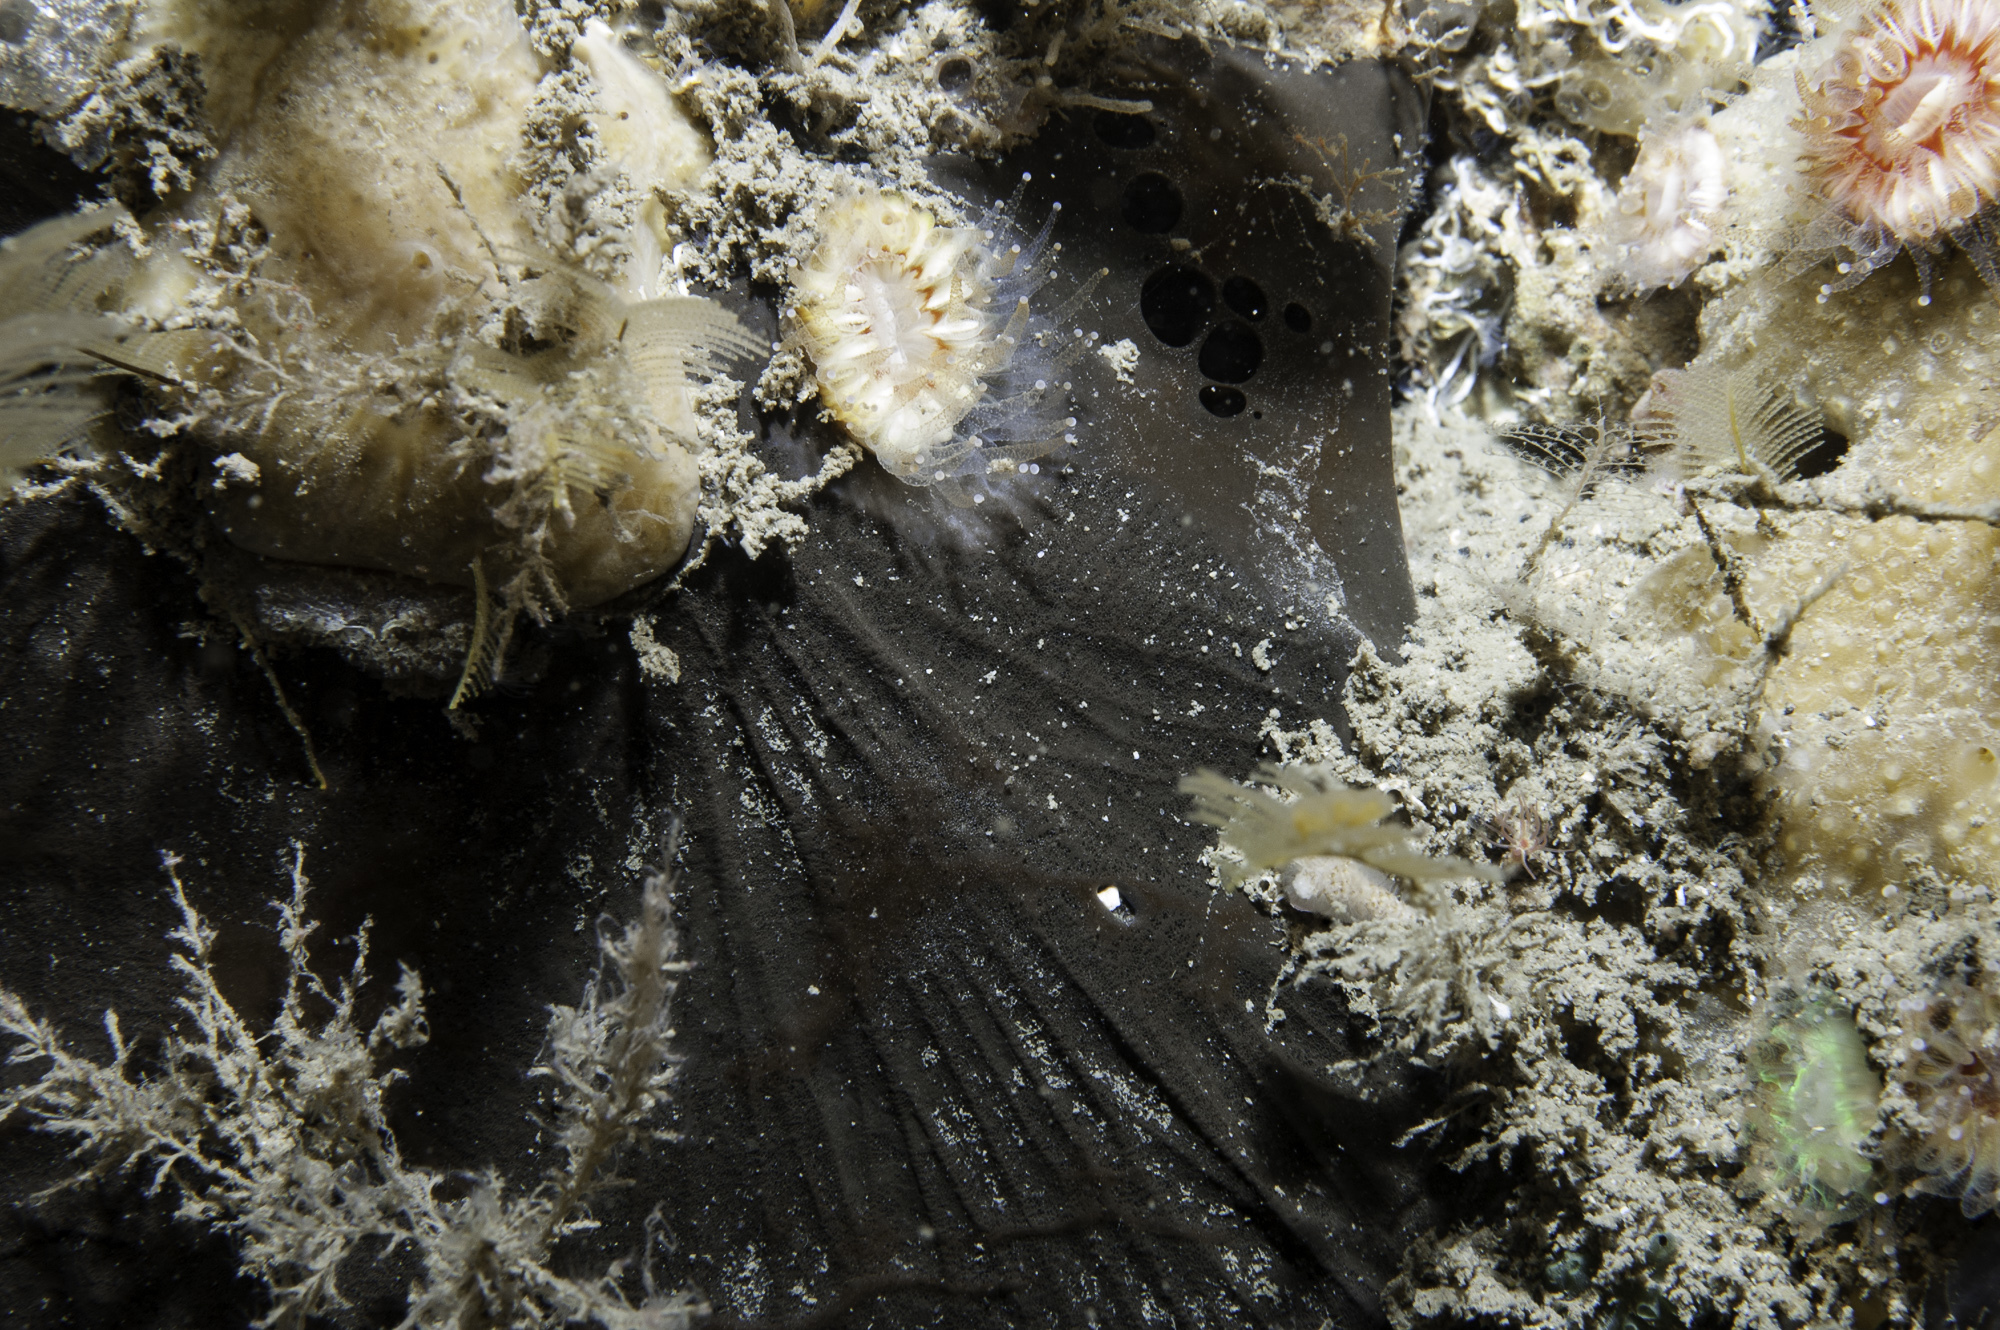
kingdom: Animalia
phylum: Porifera
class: Demospongiae
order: Tetractinellida
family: Ancorinidae
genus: Dercitus
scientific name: Dercitus bucklandi
